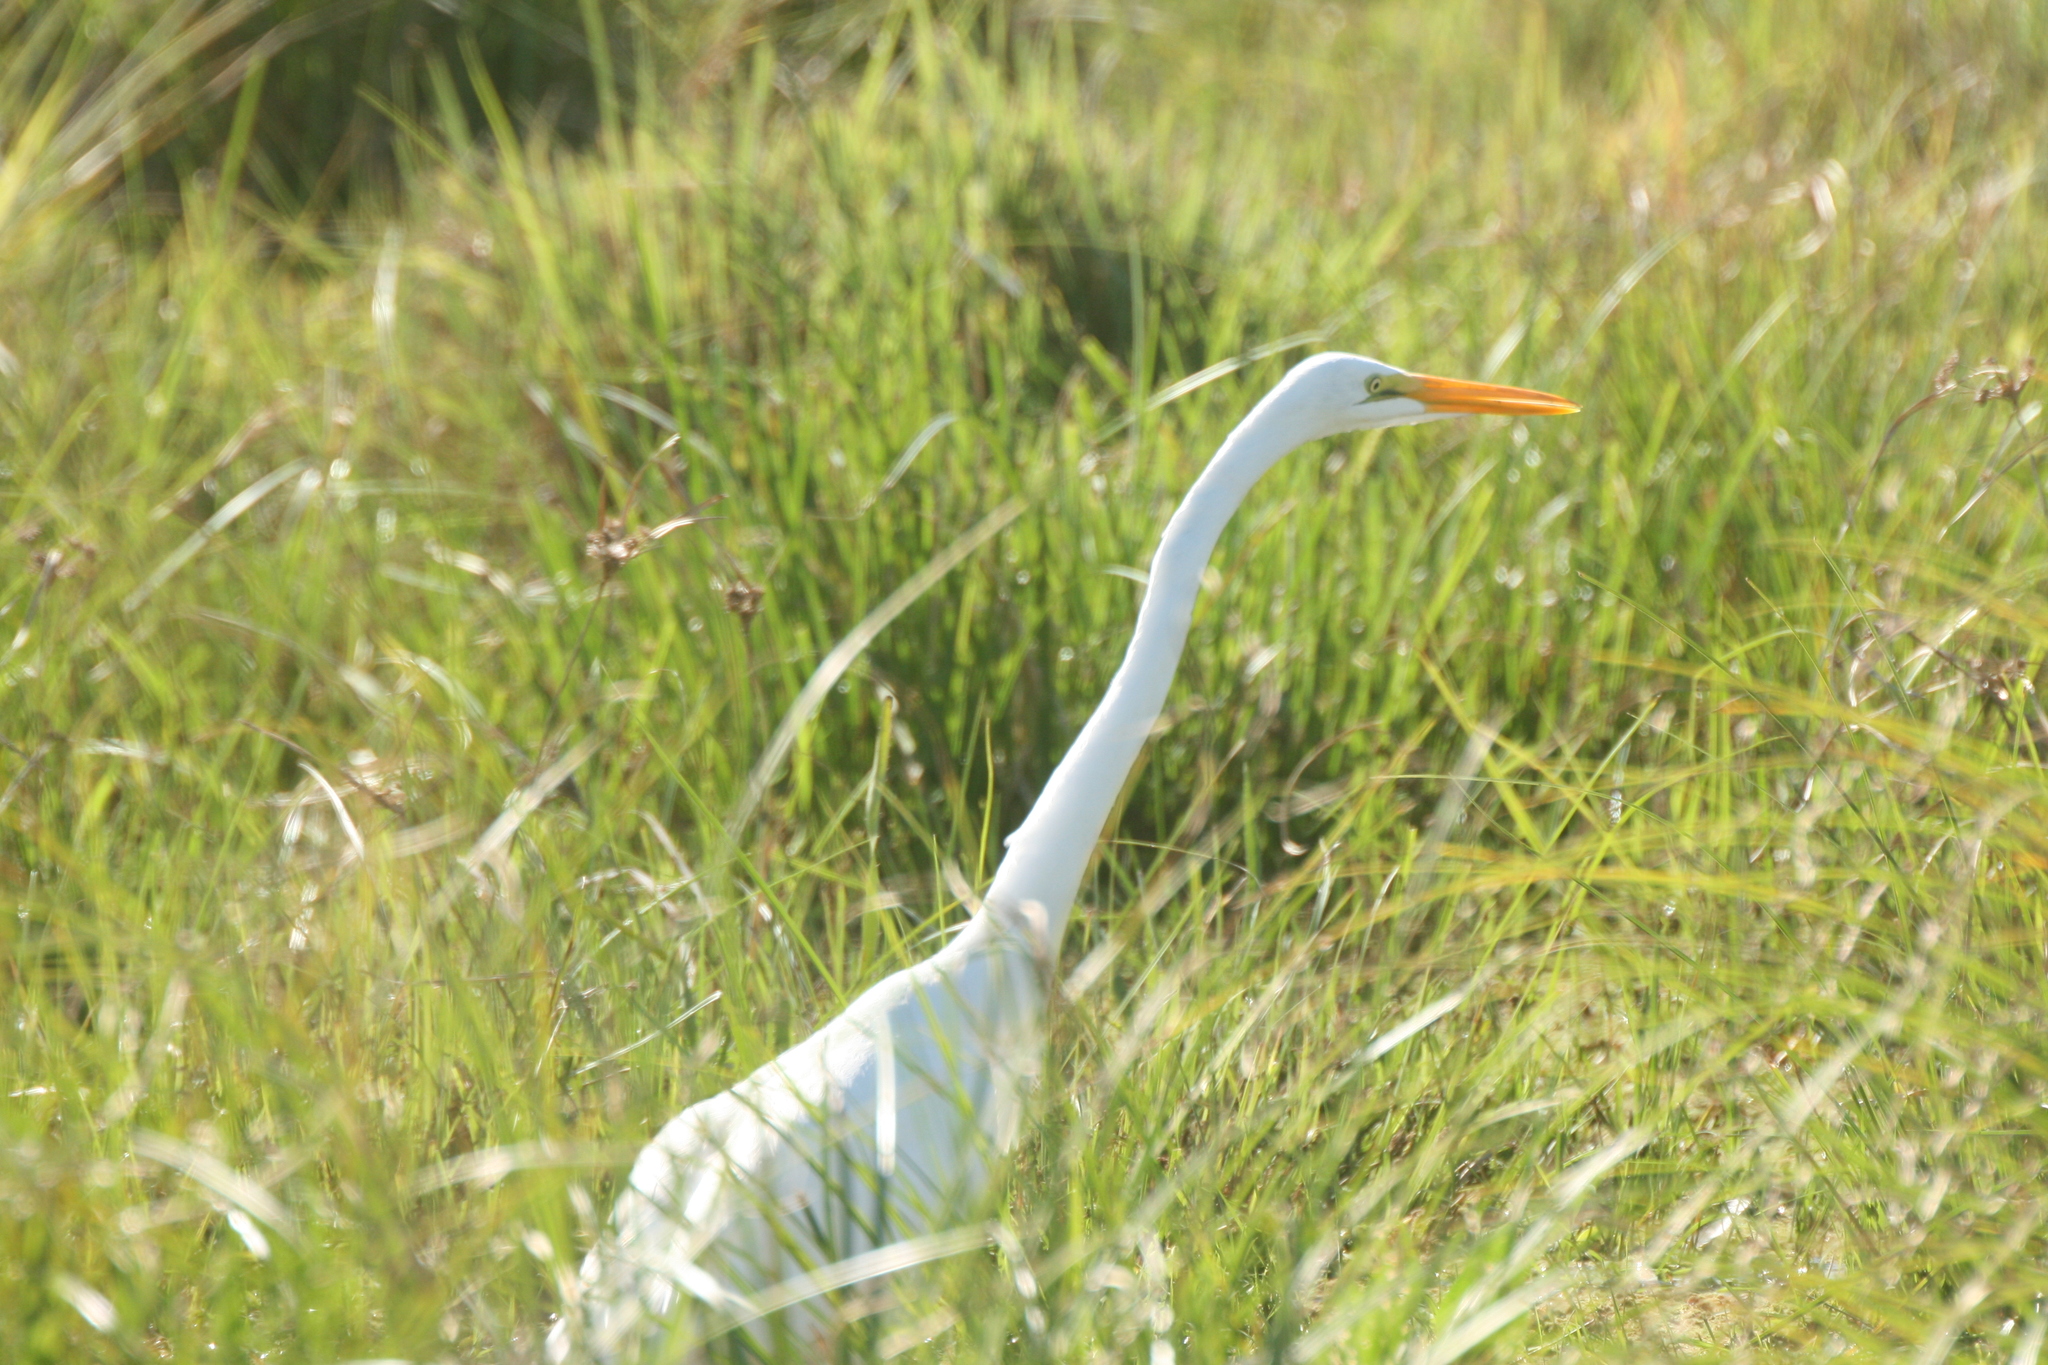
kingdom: Animalia
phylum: Chordata
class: Aves
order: Pelecaniformes
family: Ardeidae
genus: Ardea
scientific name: Ardea alba
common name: Great egret
